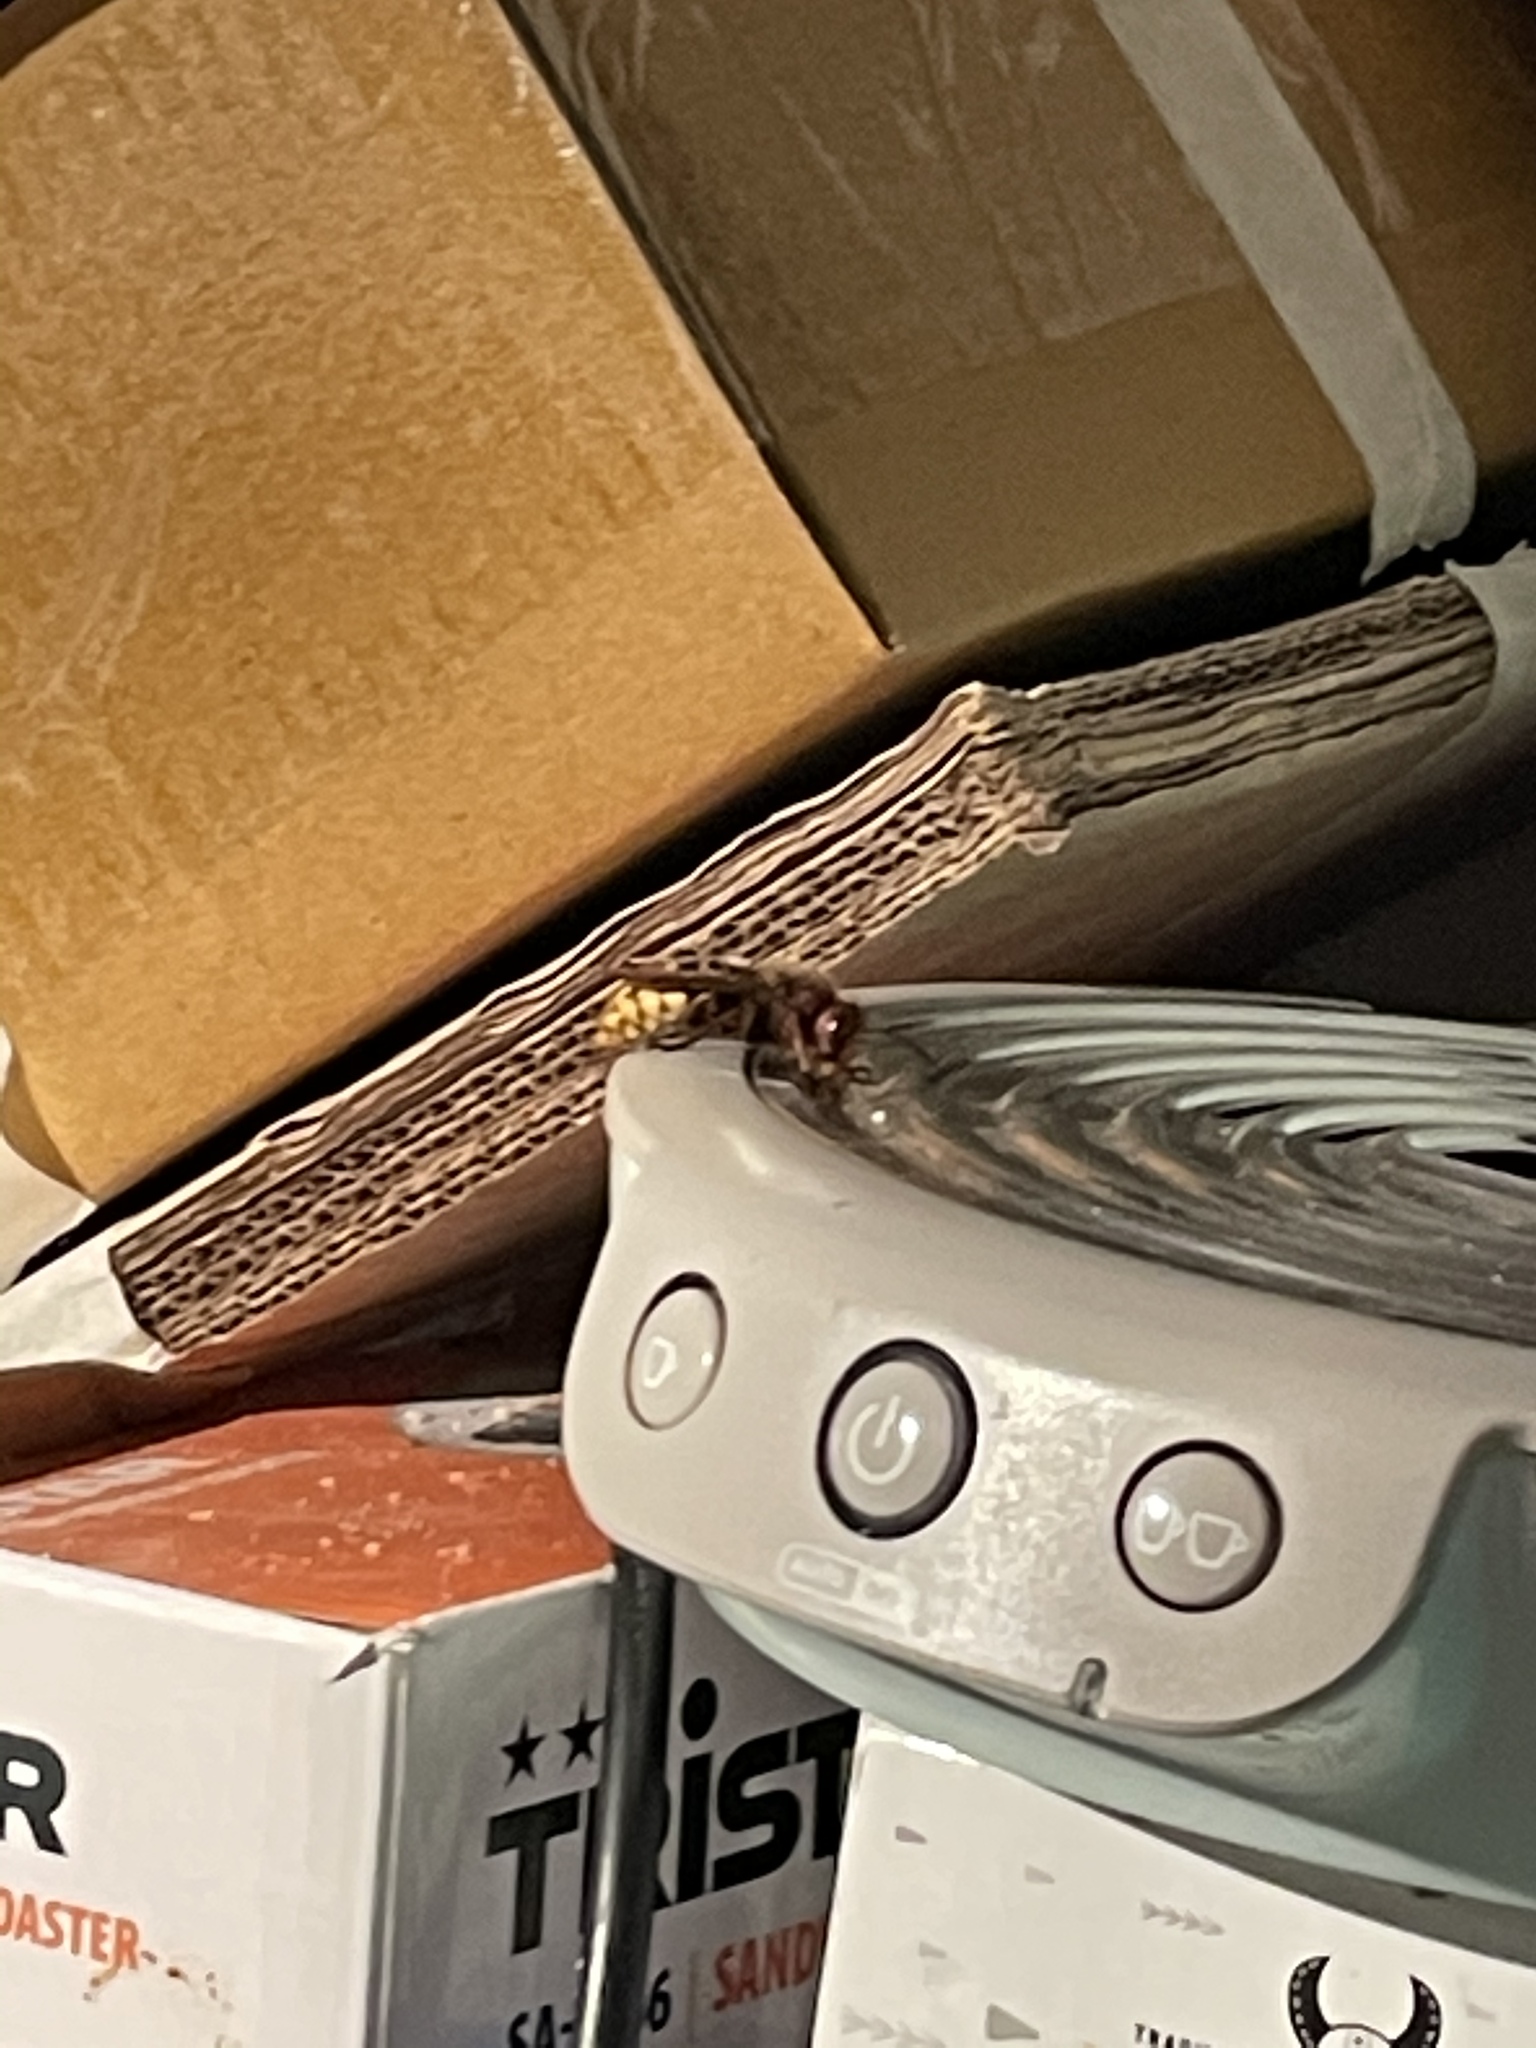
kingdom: Animalia
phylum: Arthropoda
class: Insecta
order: Hymenoptera
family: Vespidae
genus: Vespa
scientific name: Vespa crabro
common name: Hornet
